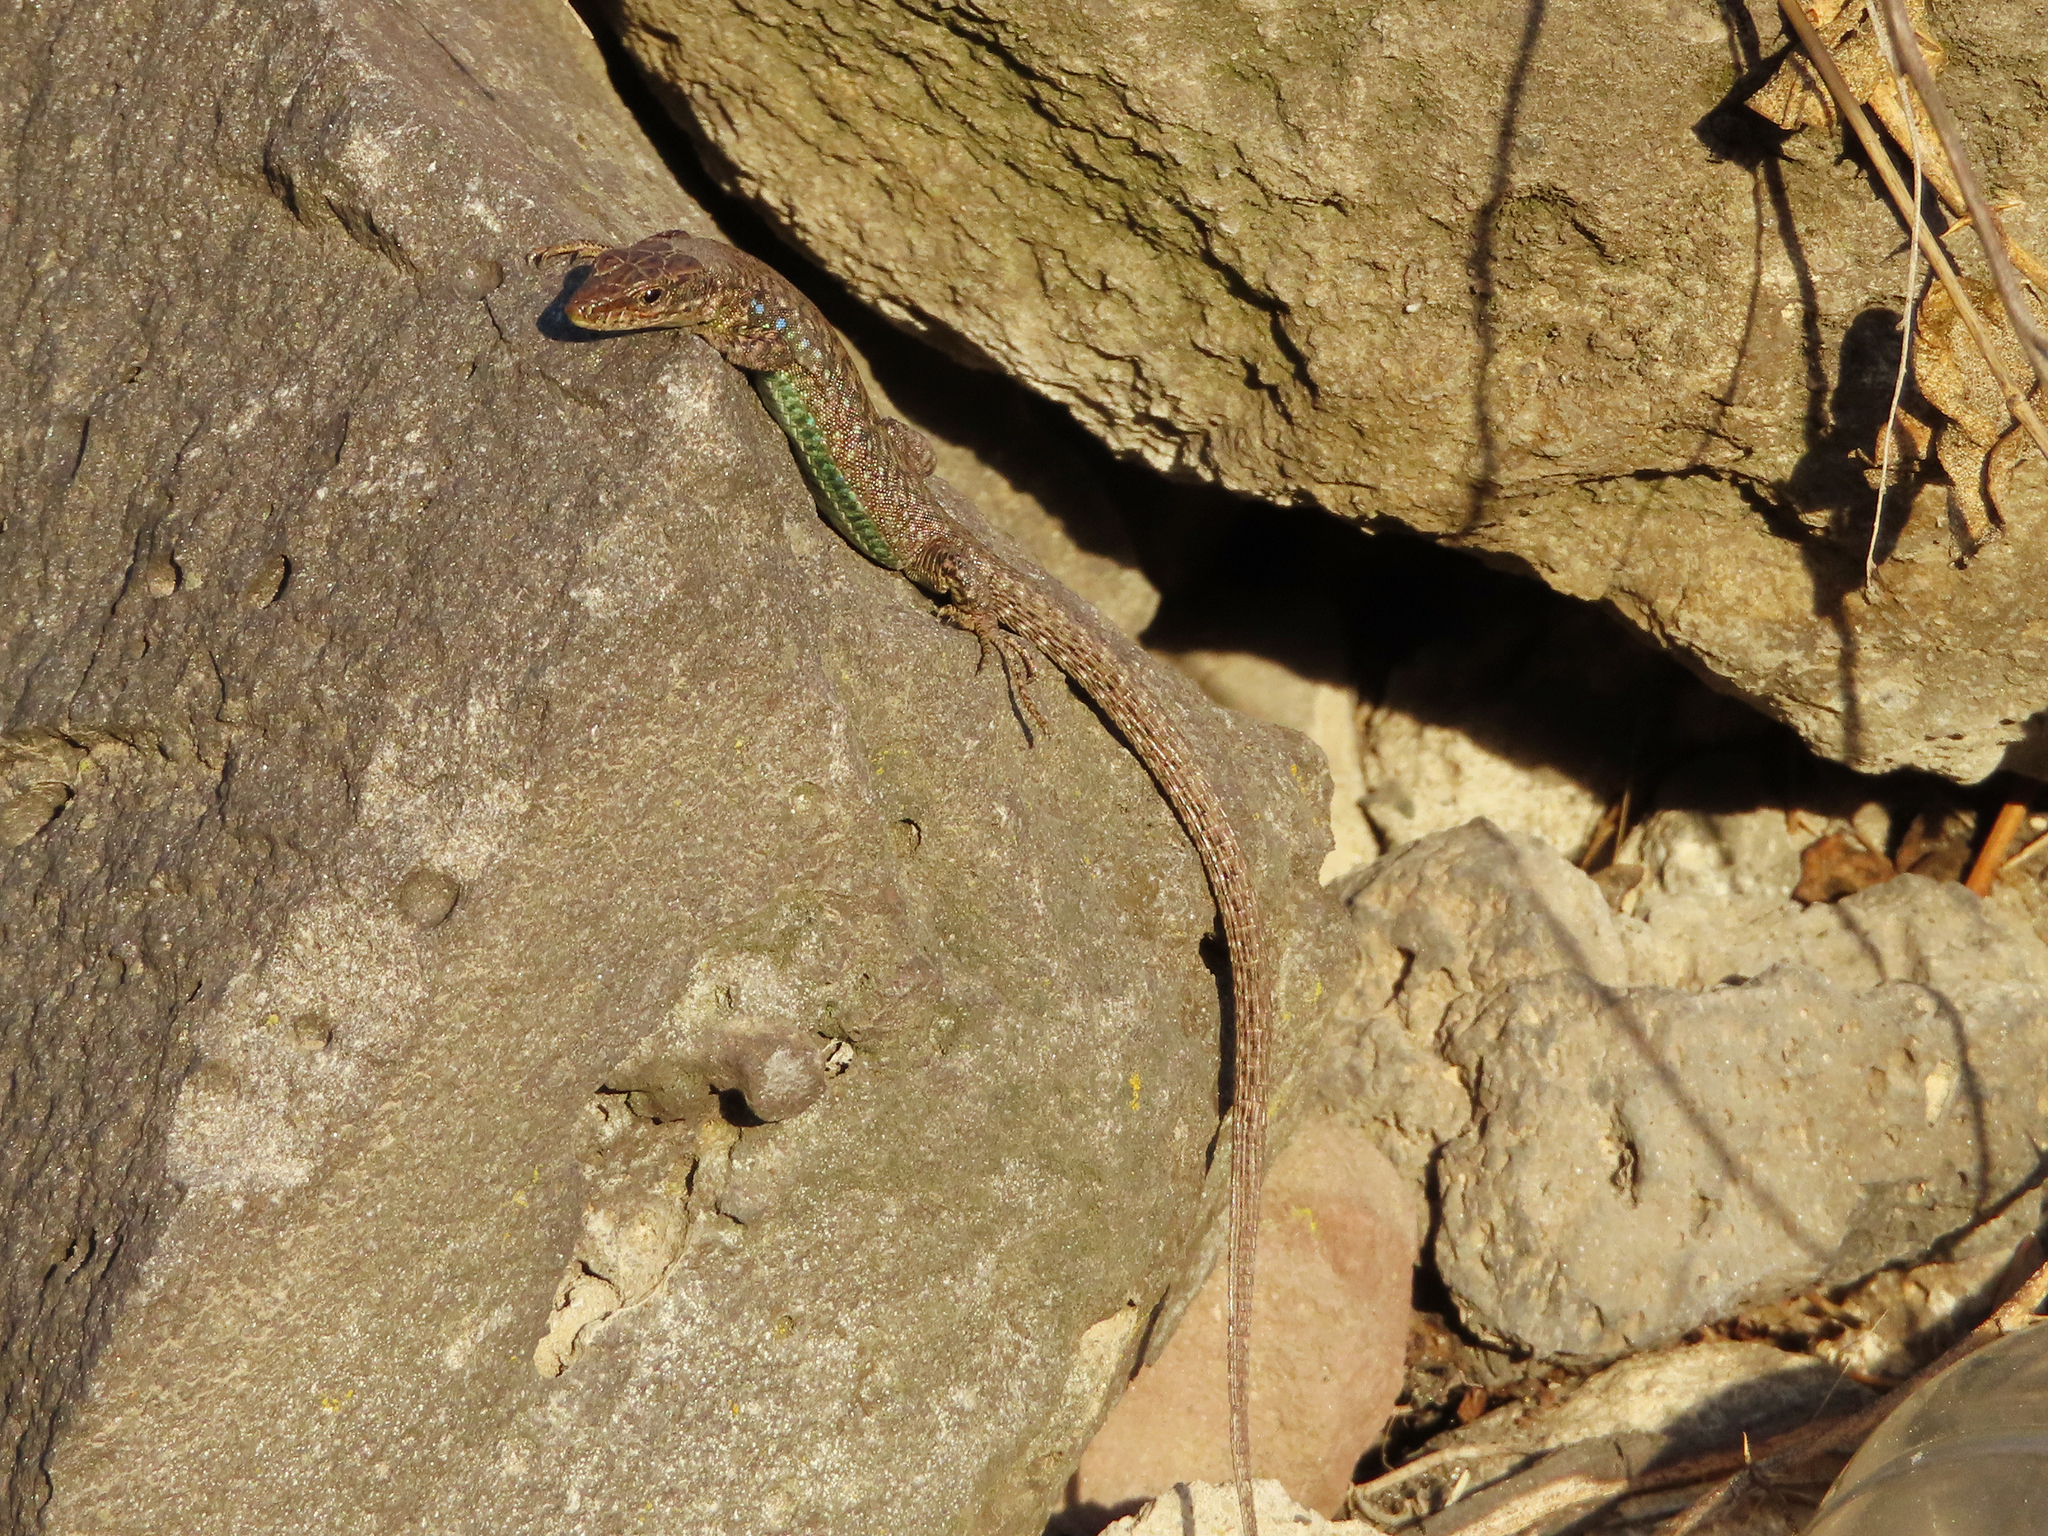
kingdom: Animalia
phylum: Chordata
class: Squamata
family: Lacertidae
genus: Darevskia
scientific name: Darevskia
